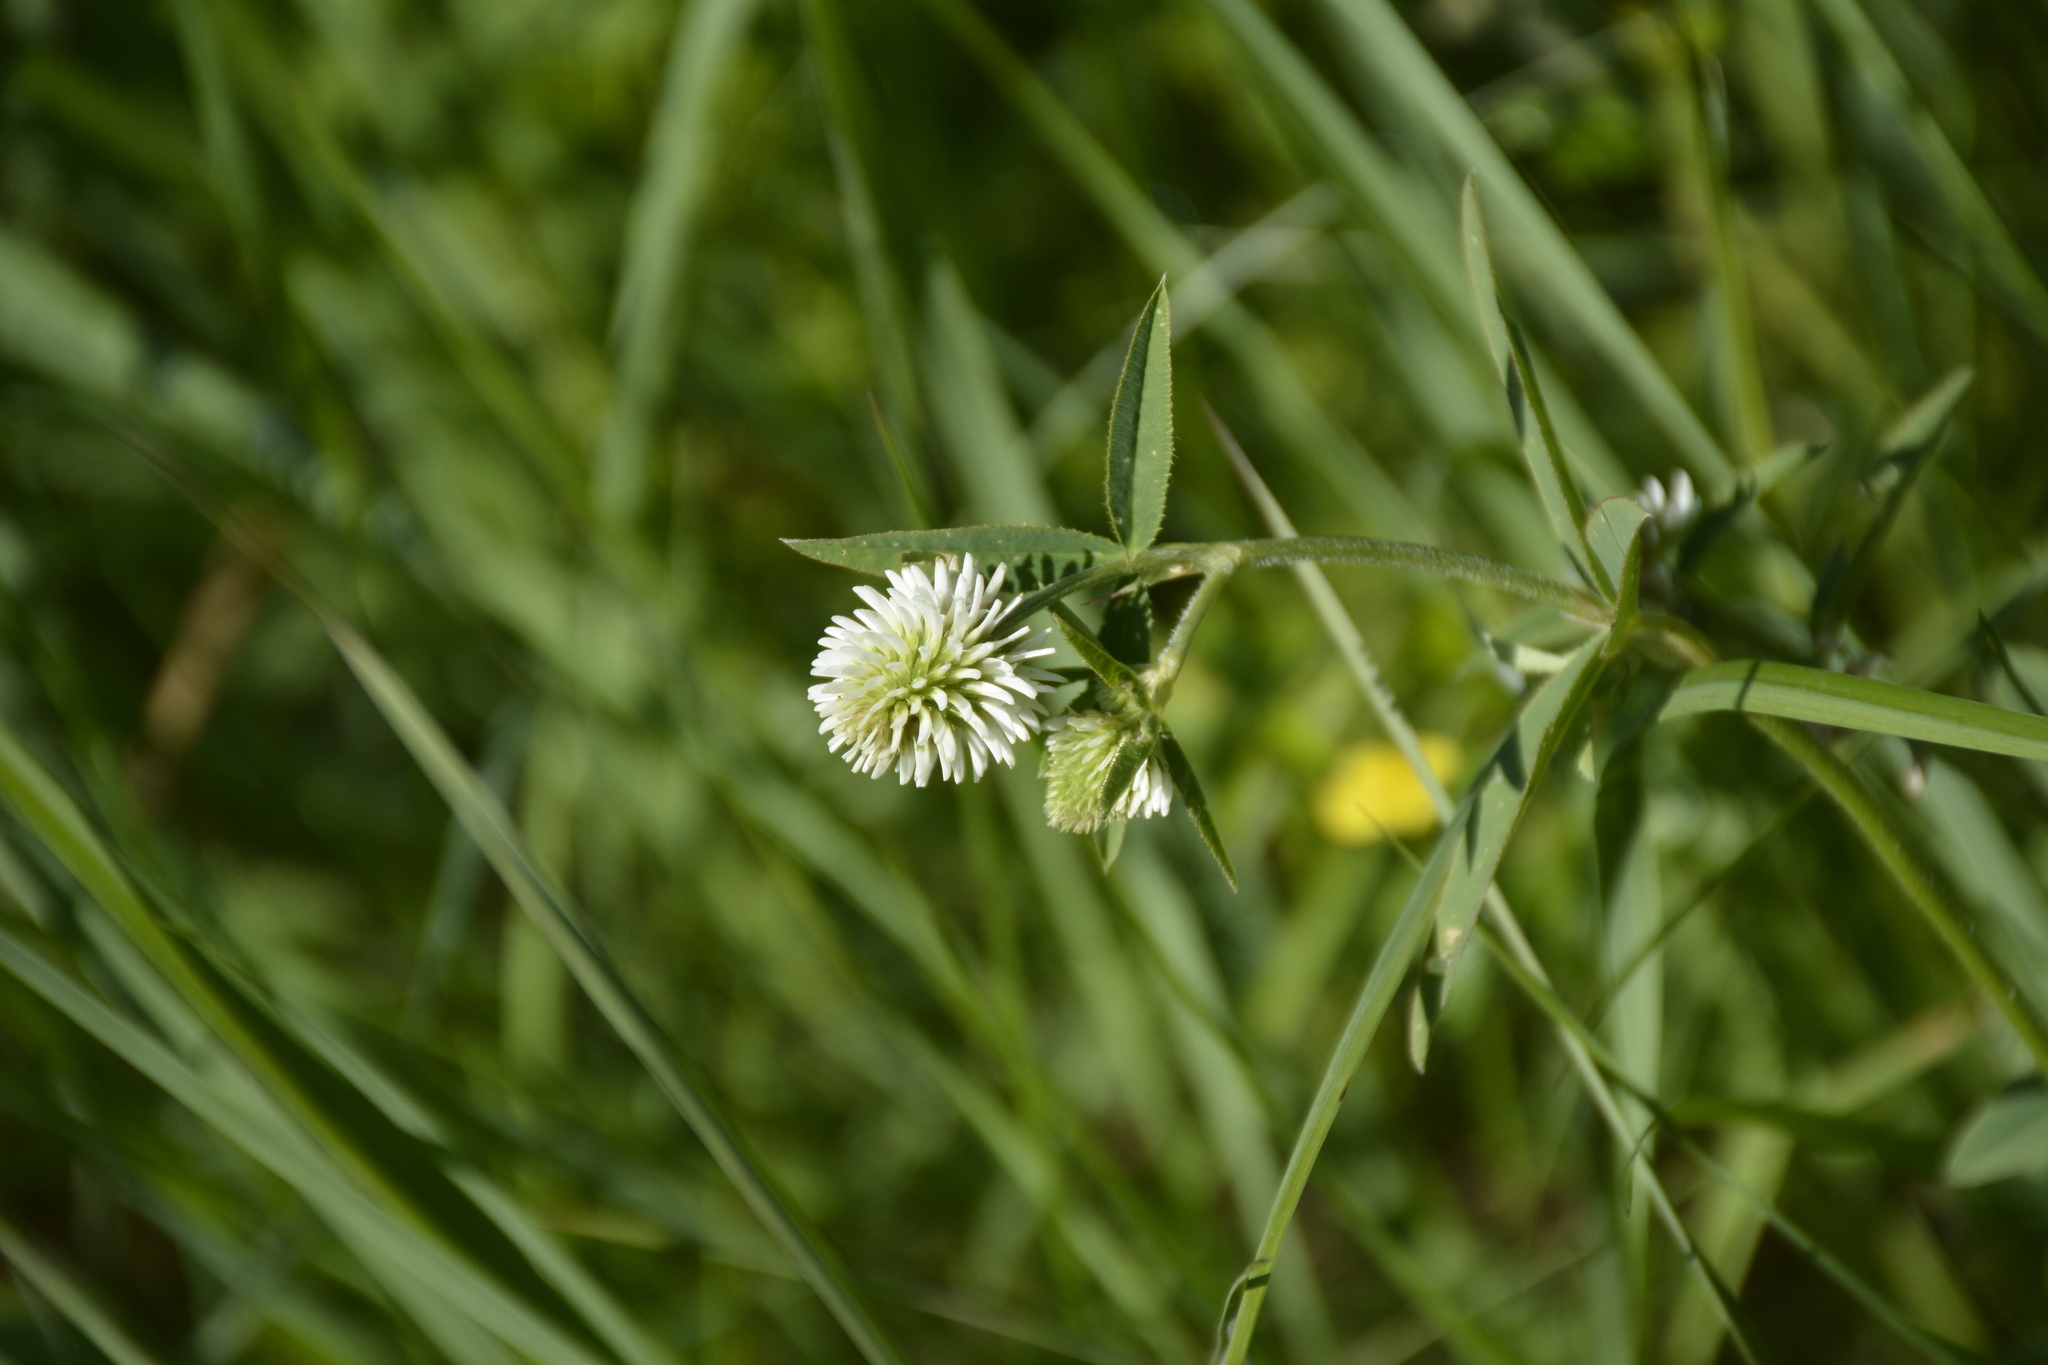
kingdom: Plantae
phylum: Tracheophyta
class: Magnoliopsida
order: Fabales
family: Fabaceae
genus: Trifolium
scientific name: Trifolium montanum
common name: Mountain clover
